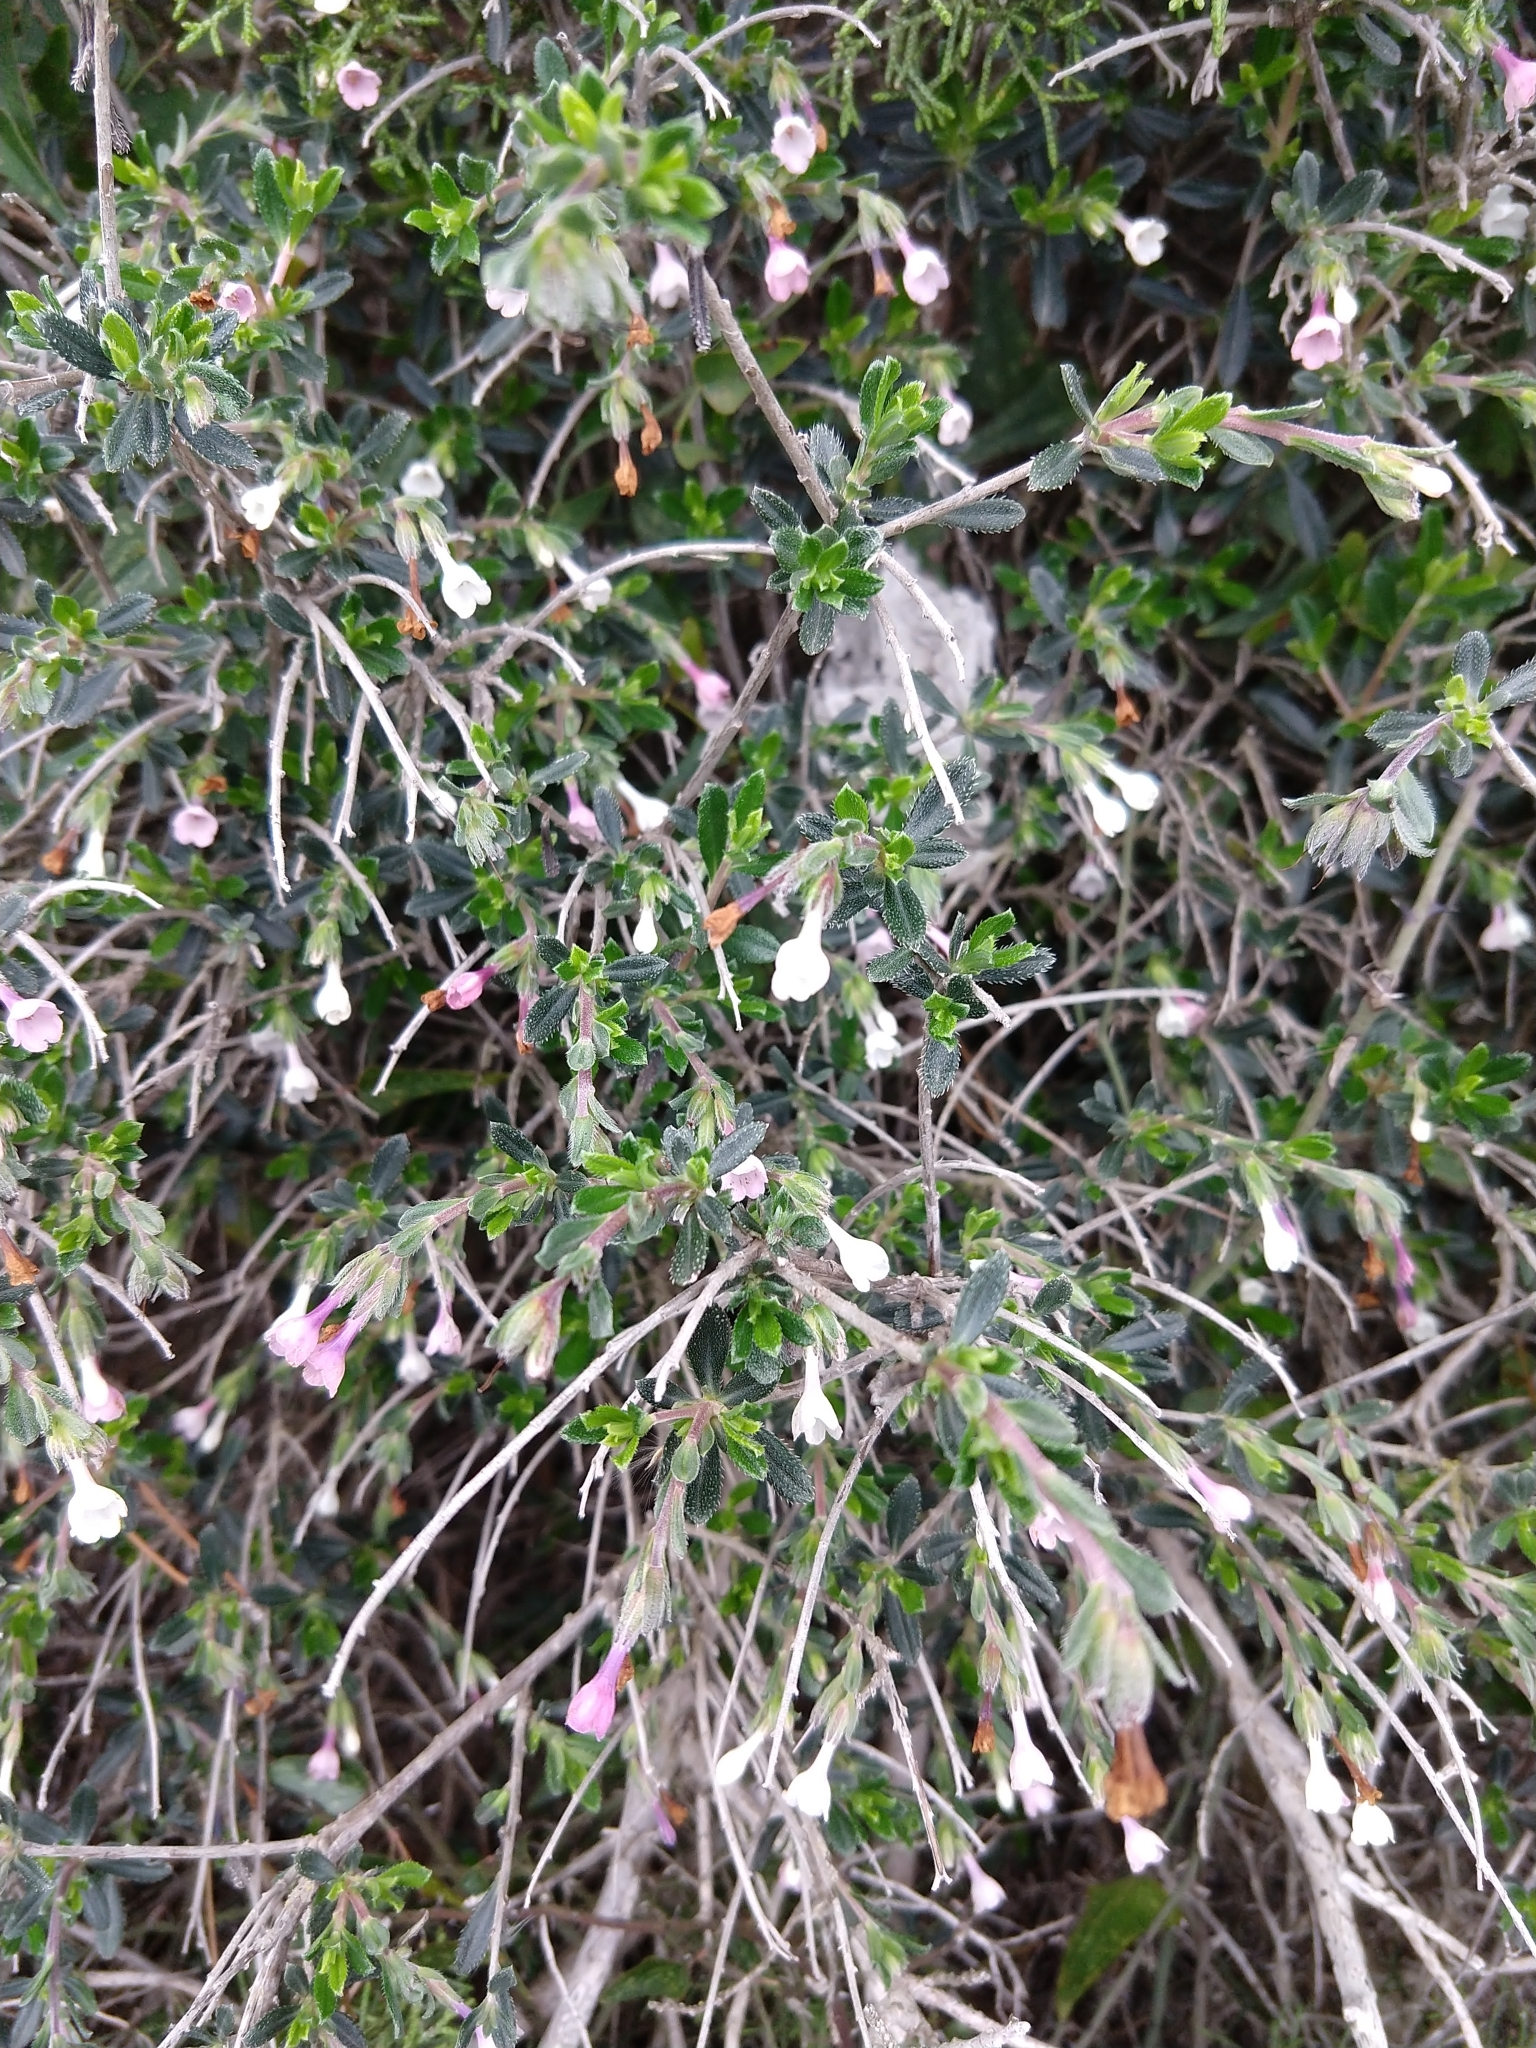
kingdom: Plantae
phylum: Tracheophyta
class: Magnoliopsida
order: Boraginales
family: Boraginaceae
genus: Lithodora
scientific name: Lithodora hispidula
